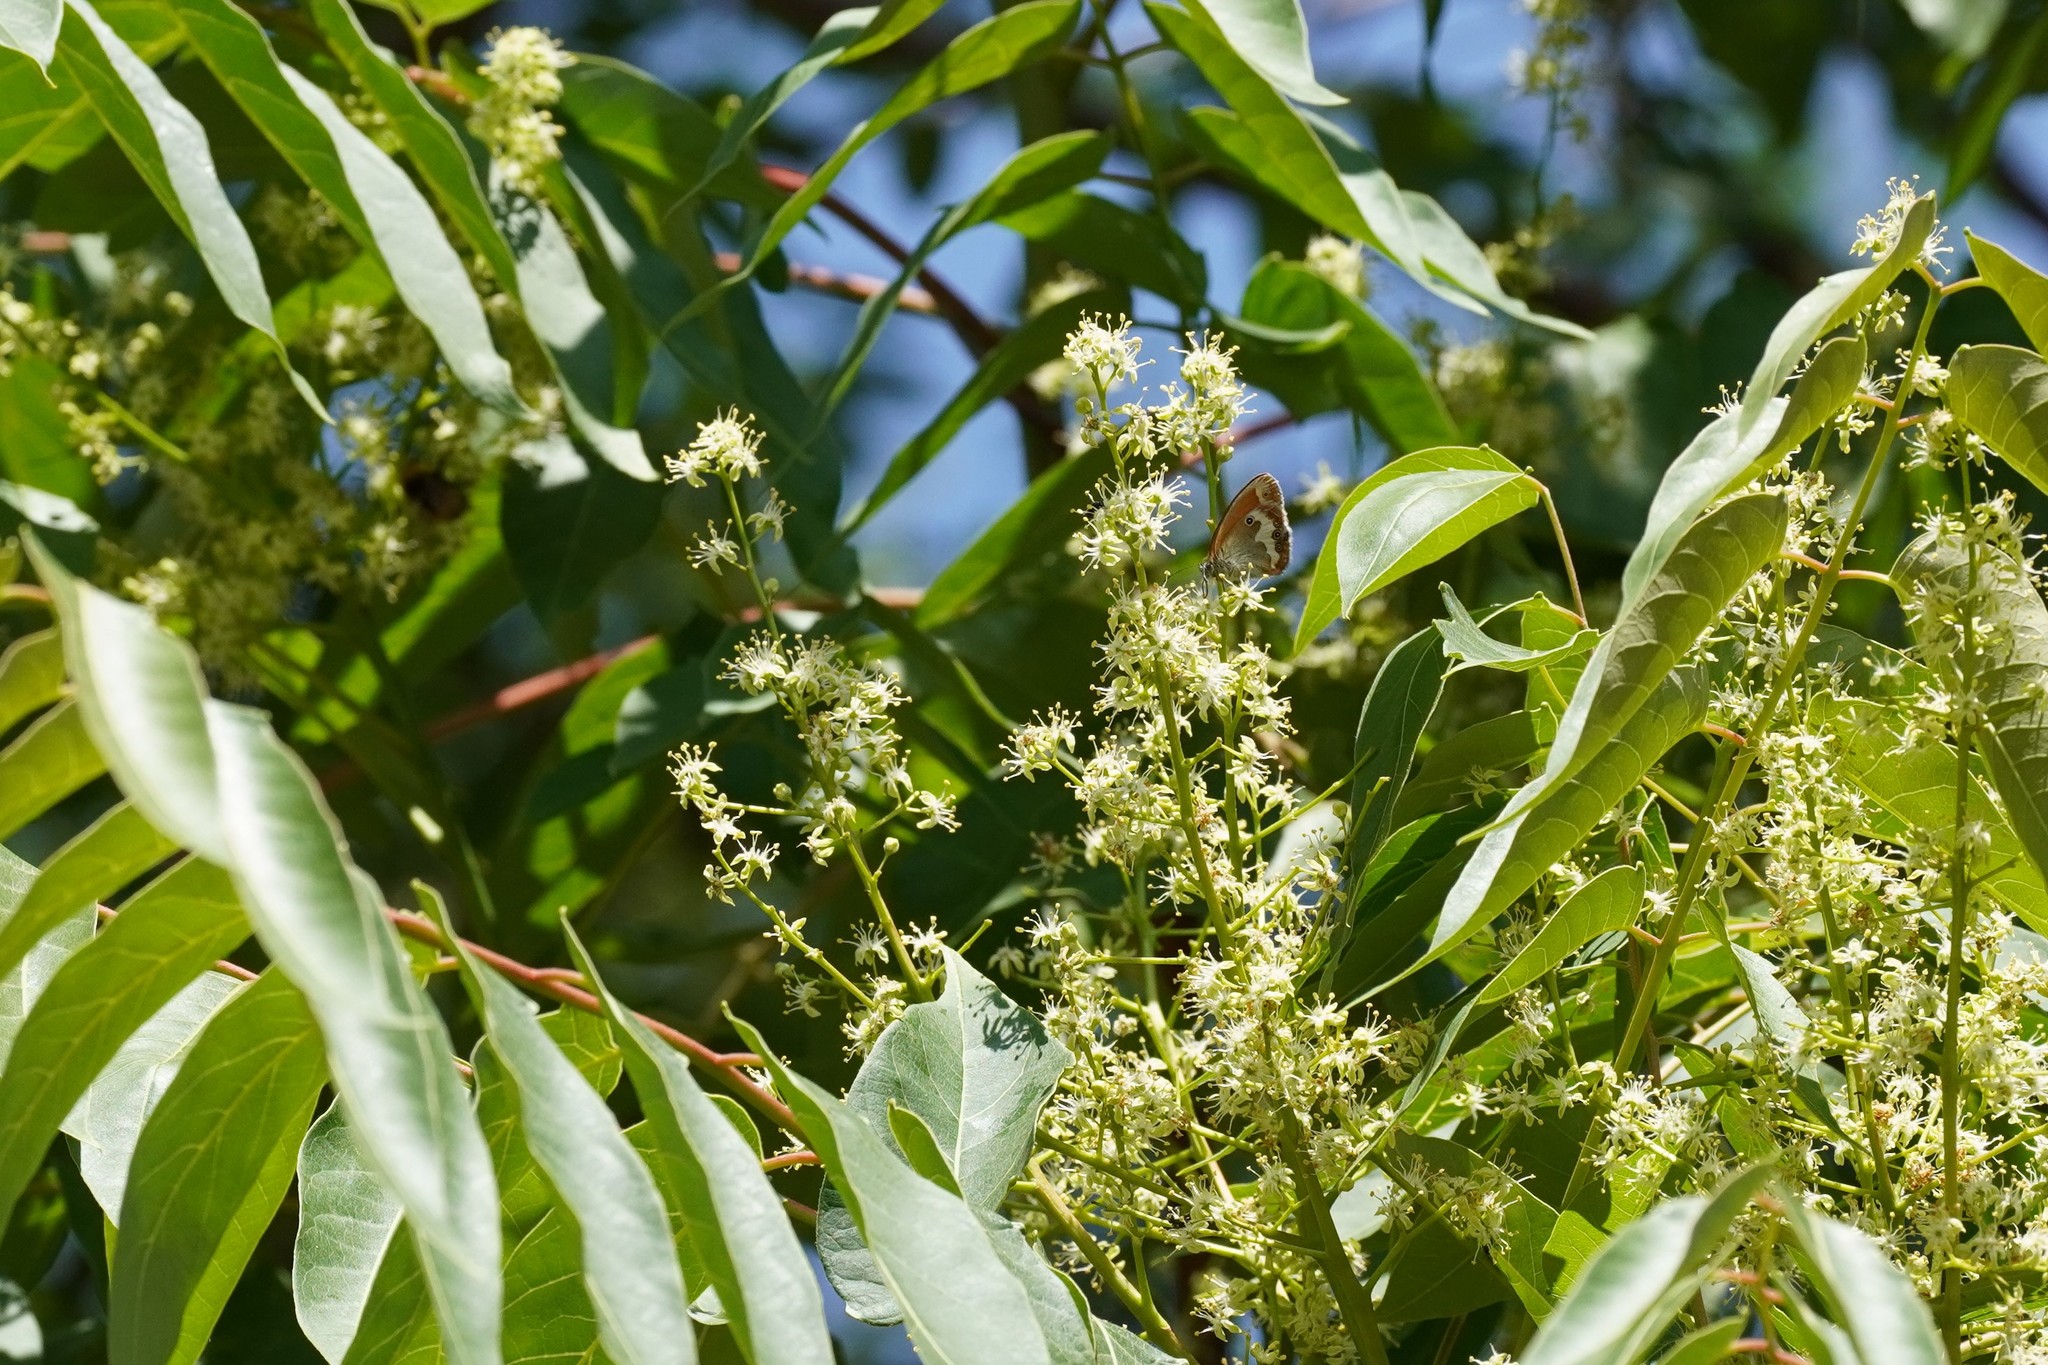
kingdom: Animalia
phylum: Arthropoda
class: Insecta
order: Lepidoptera
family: Nymphalidae
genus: Coenonympha
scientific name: Coenonympha arcania
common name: Pearly heath
